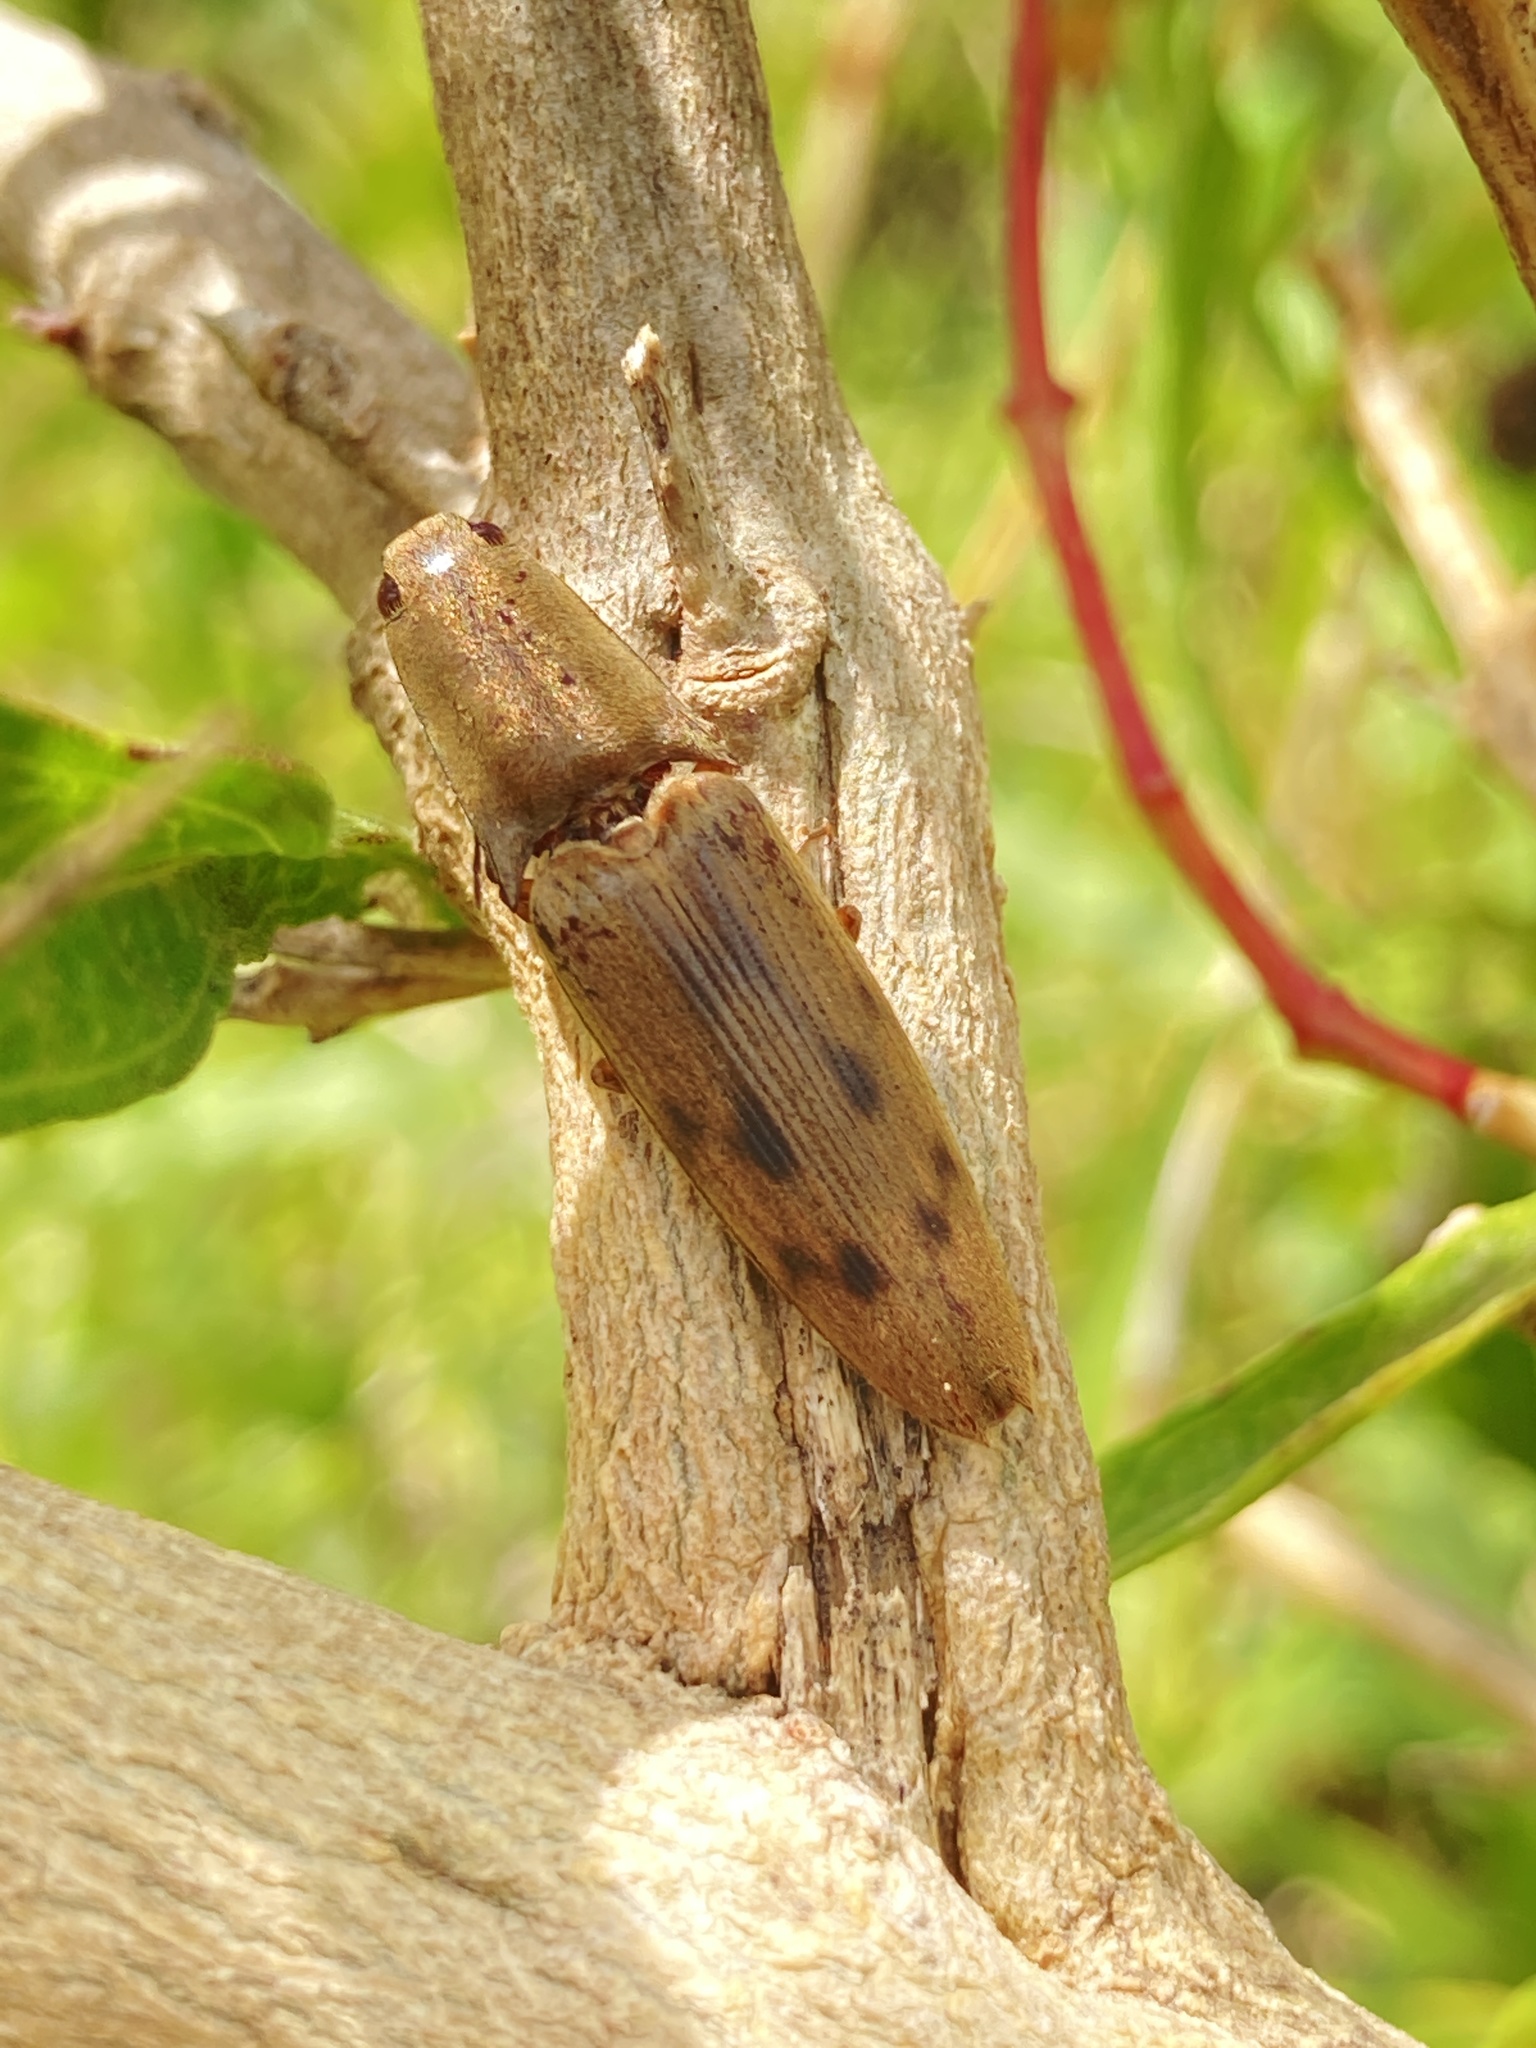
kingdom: Animalia
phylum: Arthropoda
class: Insecta
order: Coleoptera
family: Elateridae
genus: Monocrepidius
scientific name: Monocrepidius
